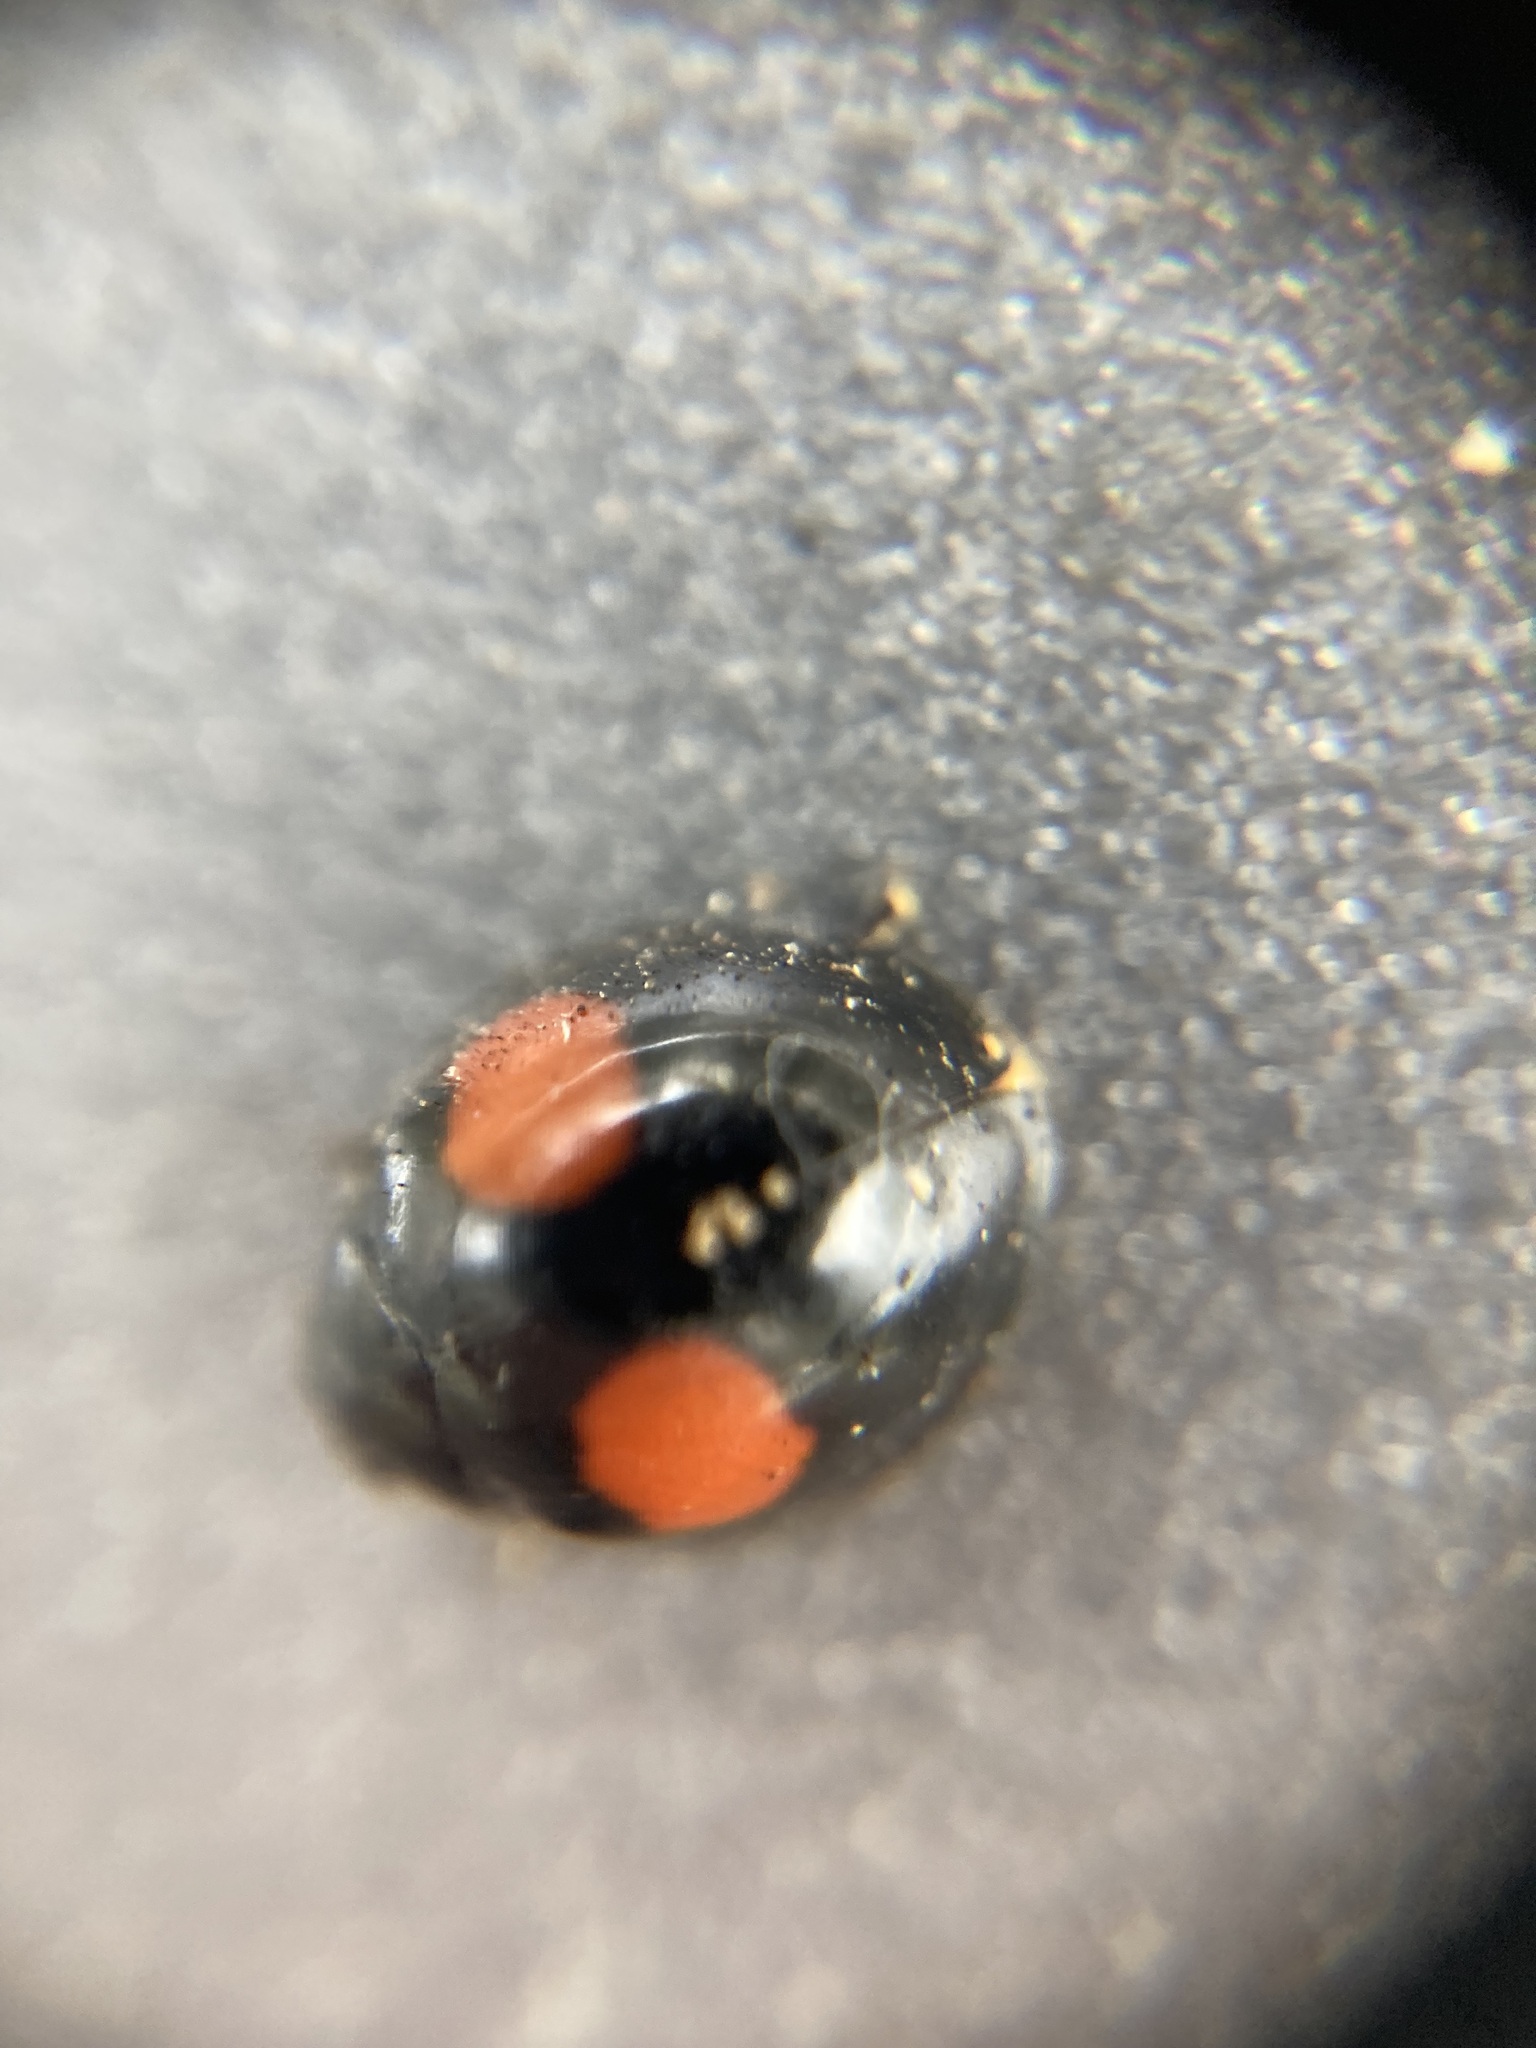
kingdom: Animalia
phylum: Arthropoda
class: Insecta
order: Coleoptera
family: Coccinellidae
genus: Chilocorus
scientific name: Chilocorus cacti
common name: Cactus lady beetle
